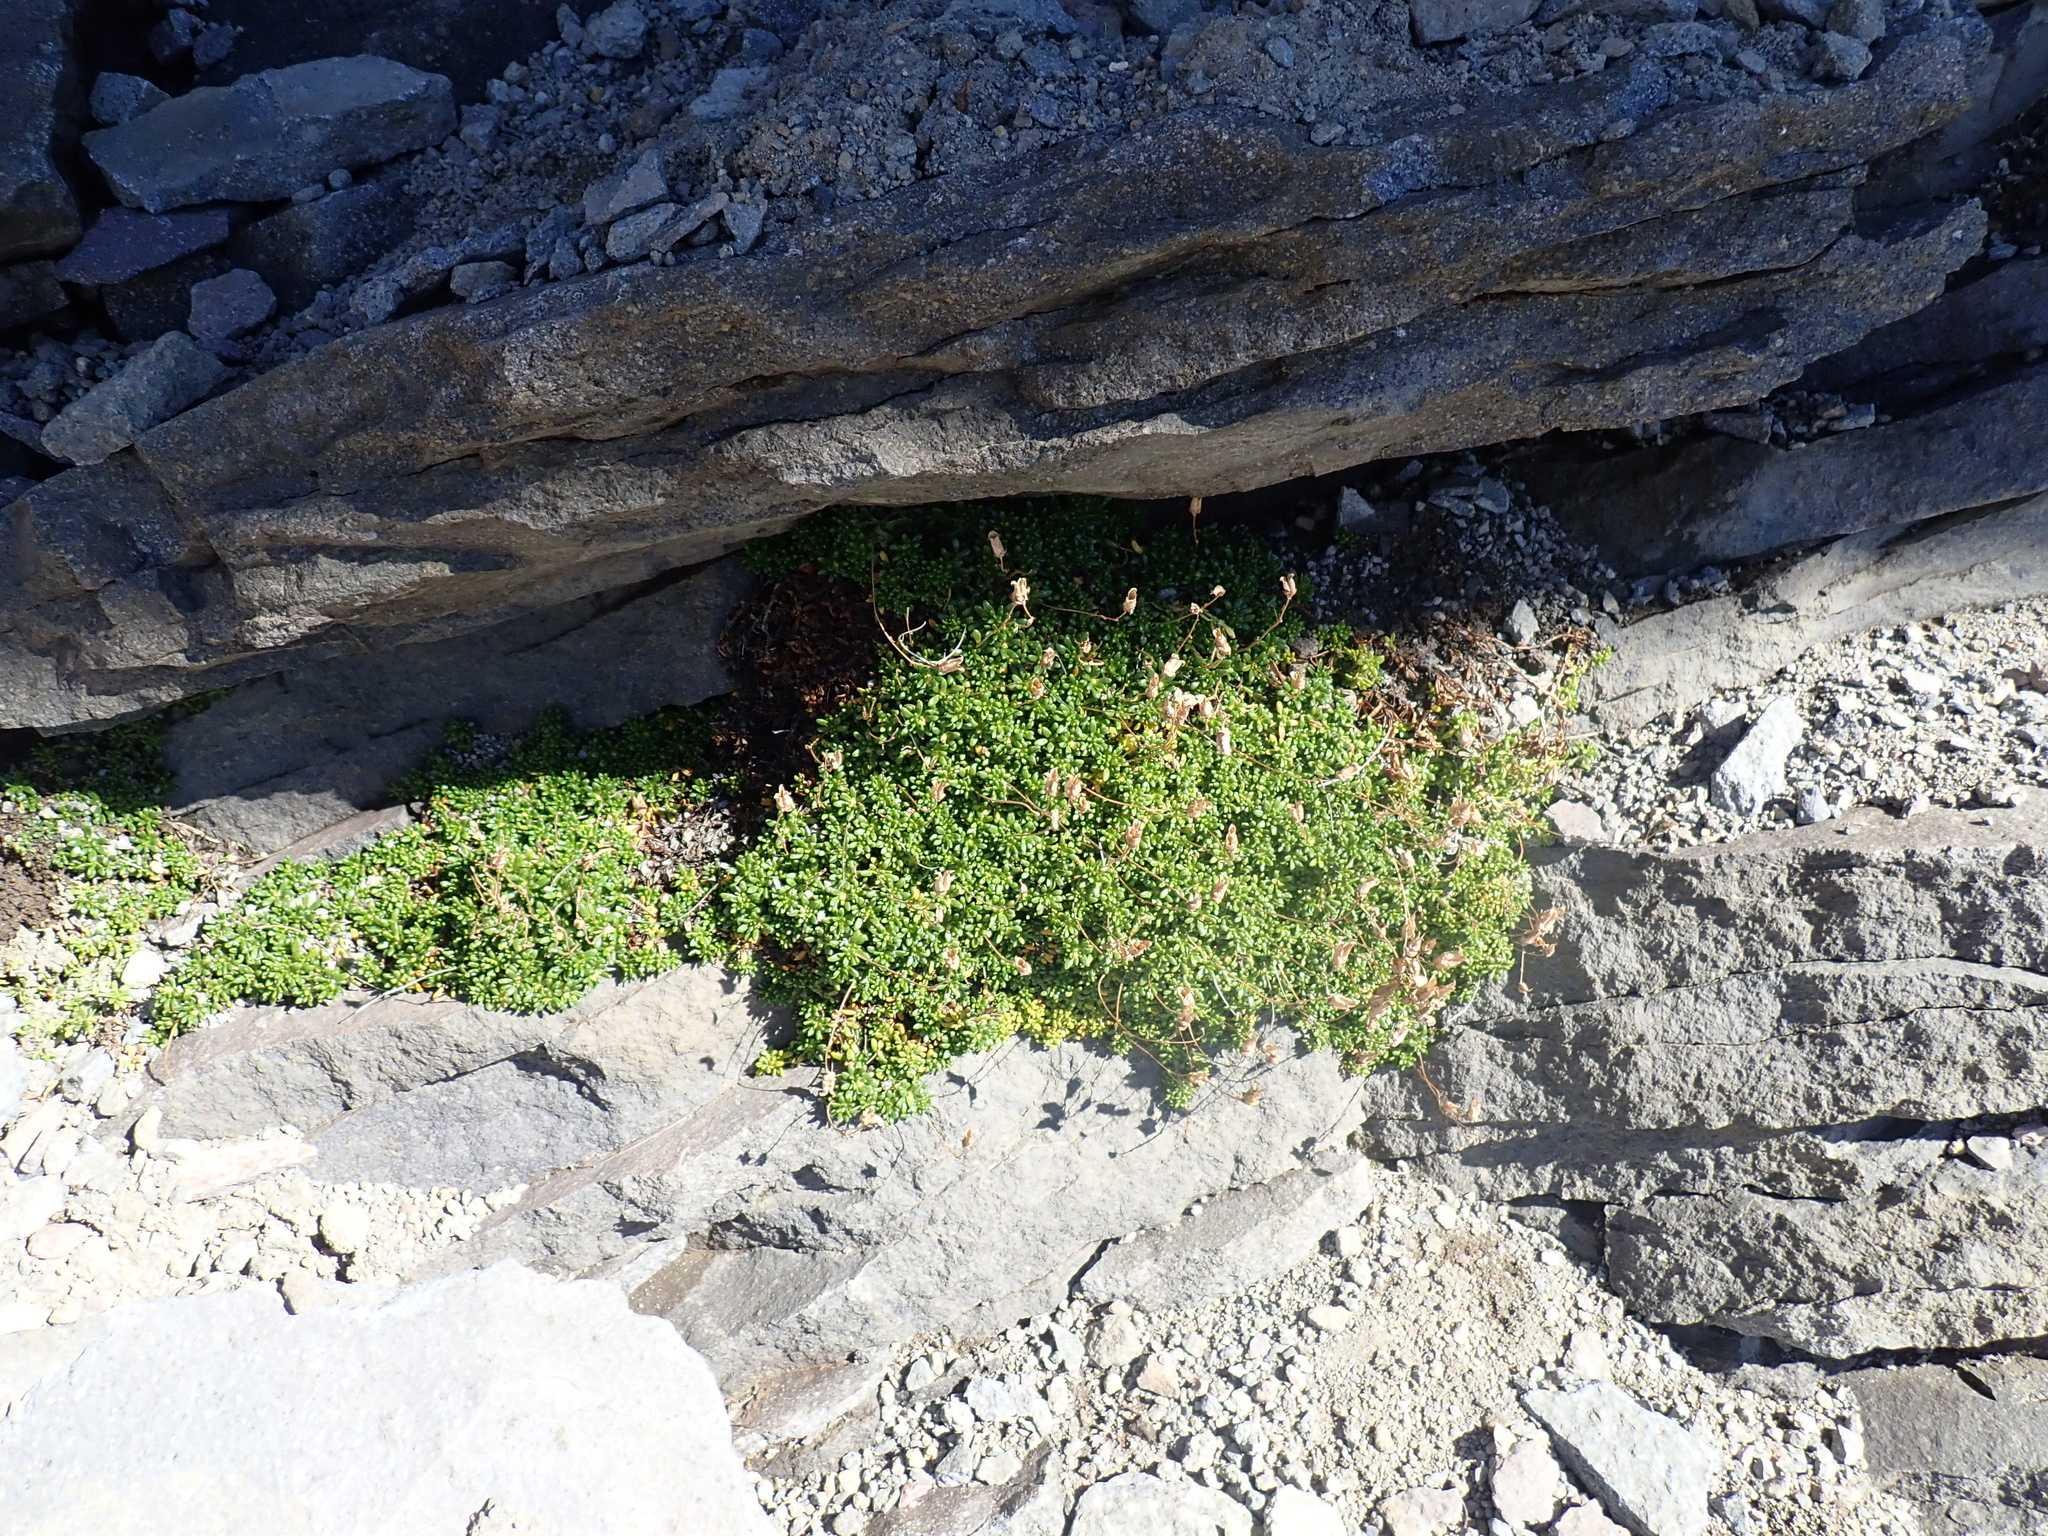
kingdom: Plantae
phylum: Tracheophyta
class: Magnoliopsida
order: Saxifragales
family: Saxifragaceae
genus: Micranthes
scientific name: Micranthes tolmiei
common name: Tolmie's saxifrage
